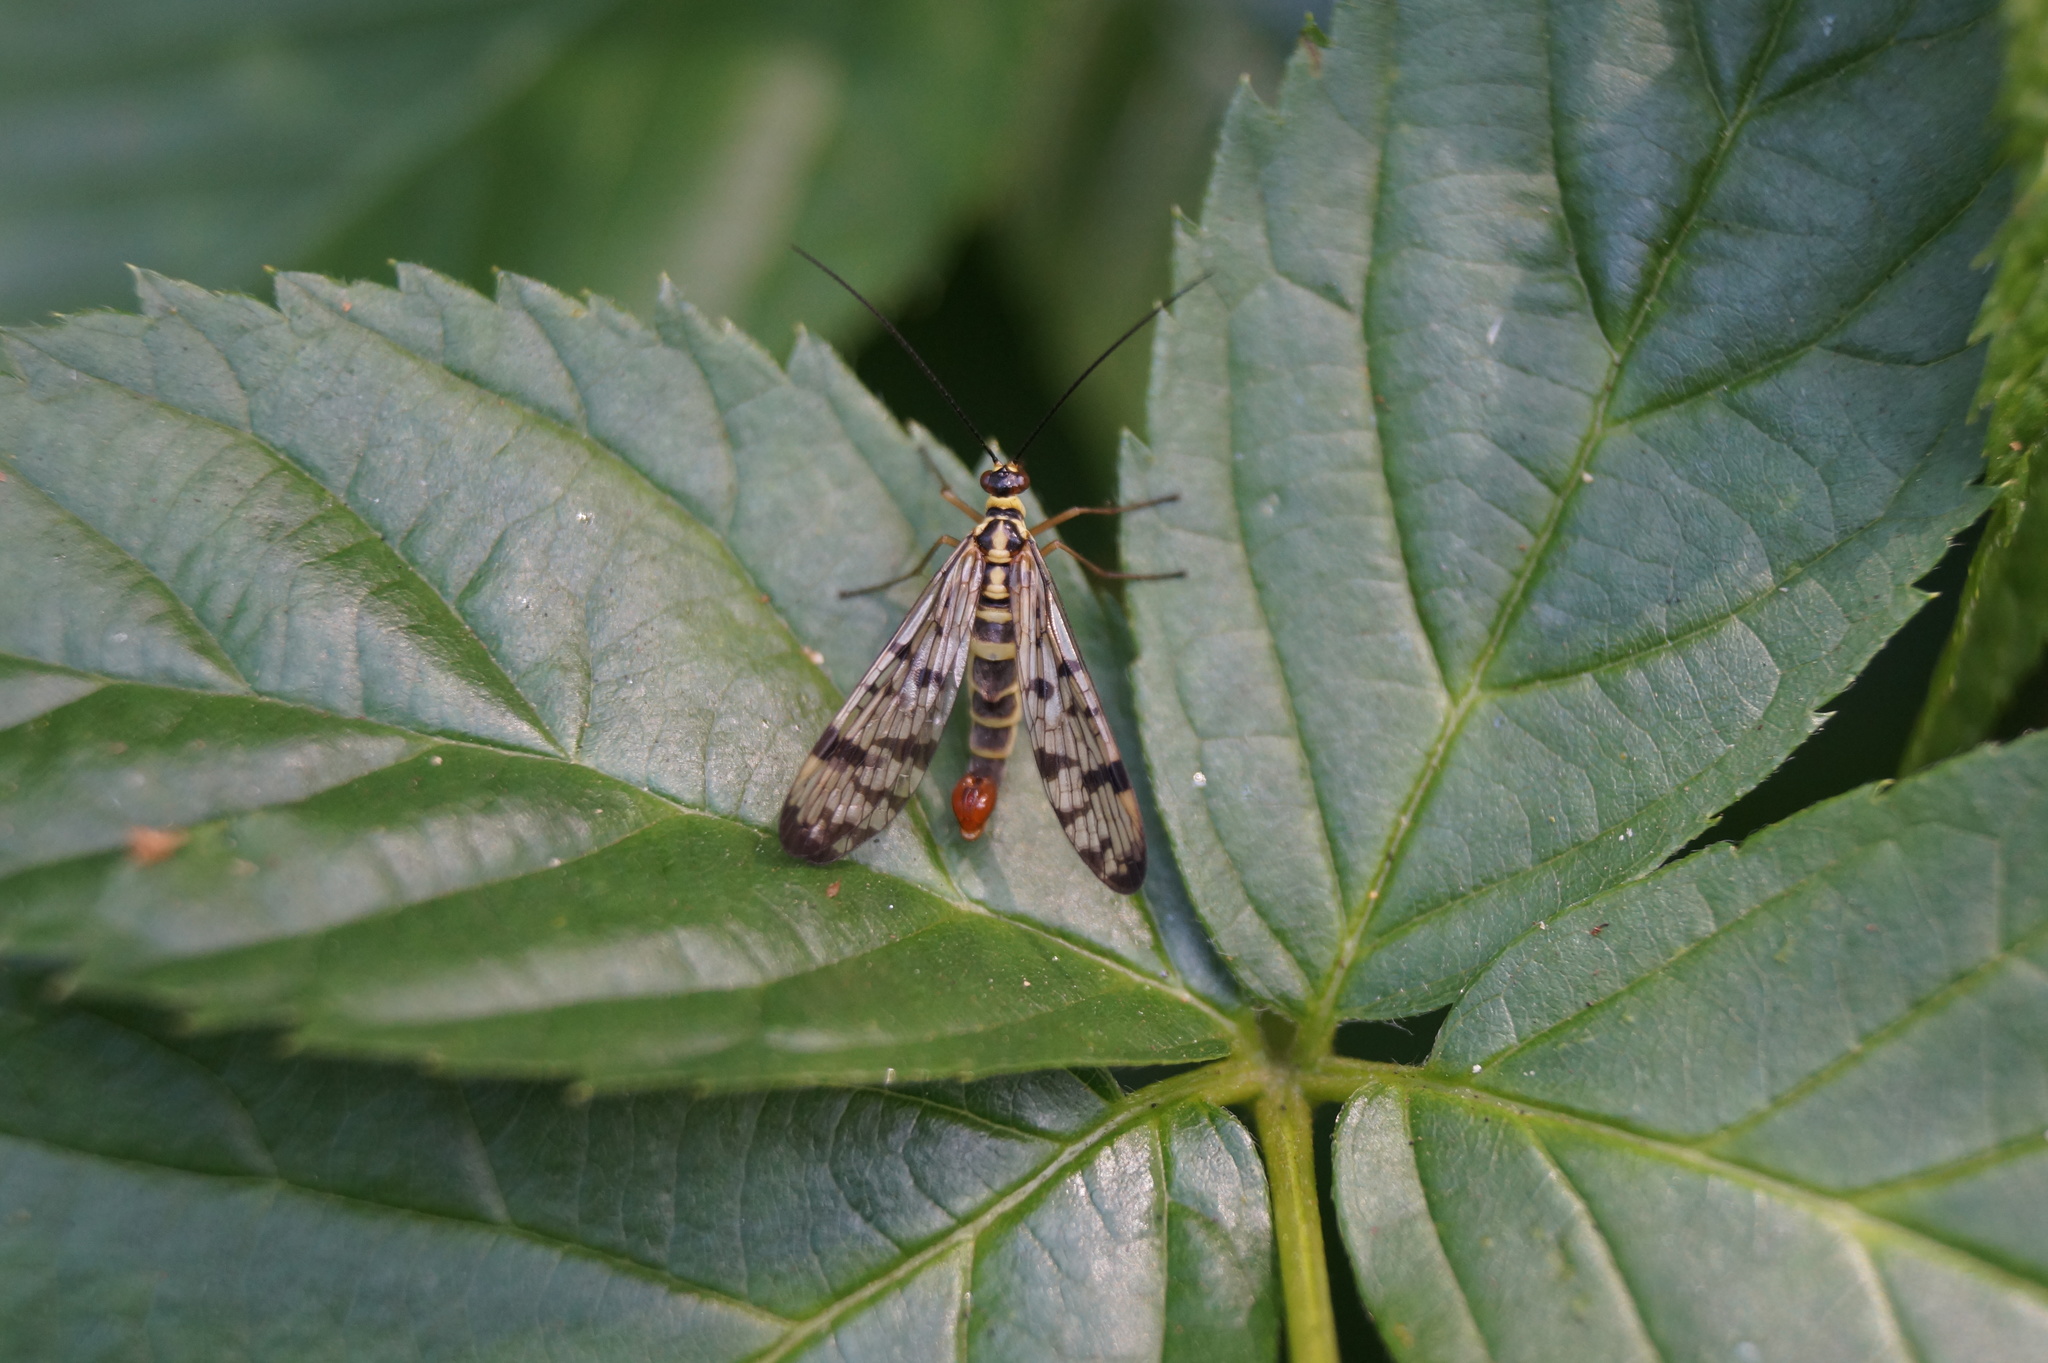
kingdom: Animalia
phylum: Arthropoda
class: Insecta
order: Mecoptera
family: Panorpidae
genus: Panorpa
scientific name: Panorpa germanica
